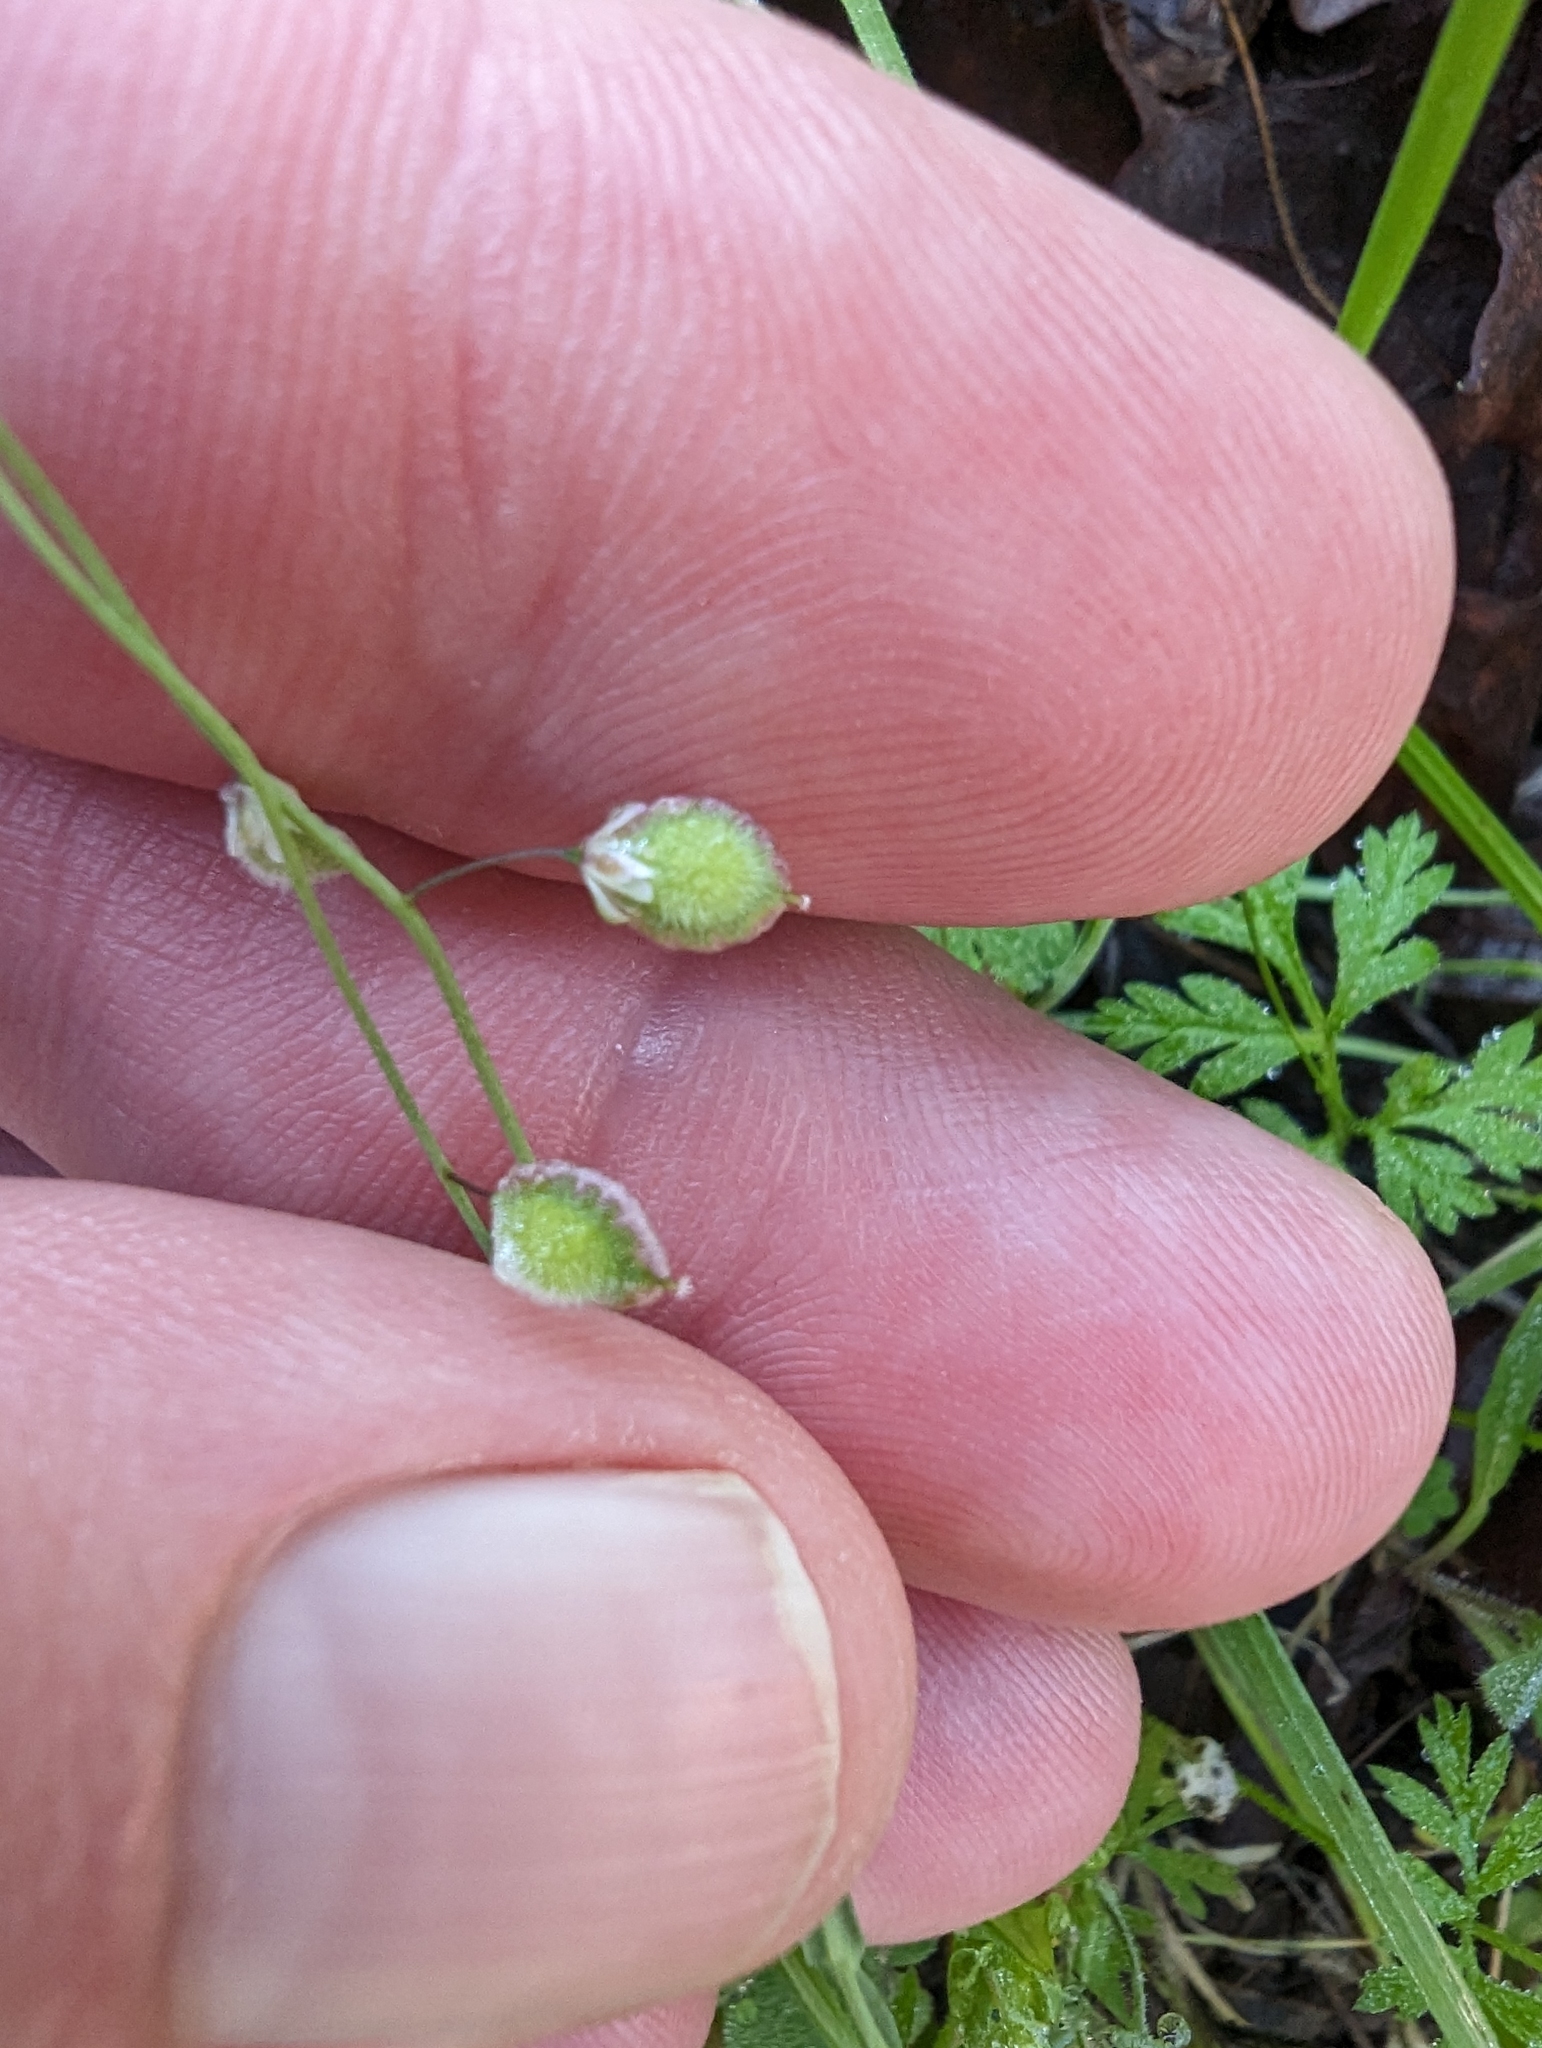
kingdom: Plantae
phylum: Tracheophyta
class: Magnoliopsida
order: Brassicales
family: Brassicaceae
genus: Thysanocarpus
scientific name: Thysanocarpus curvipes
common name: Sand fringepod
